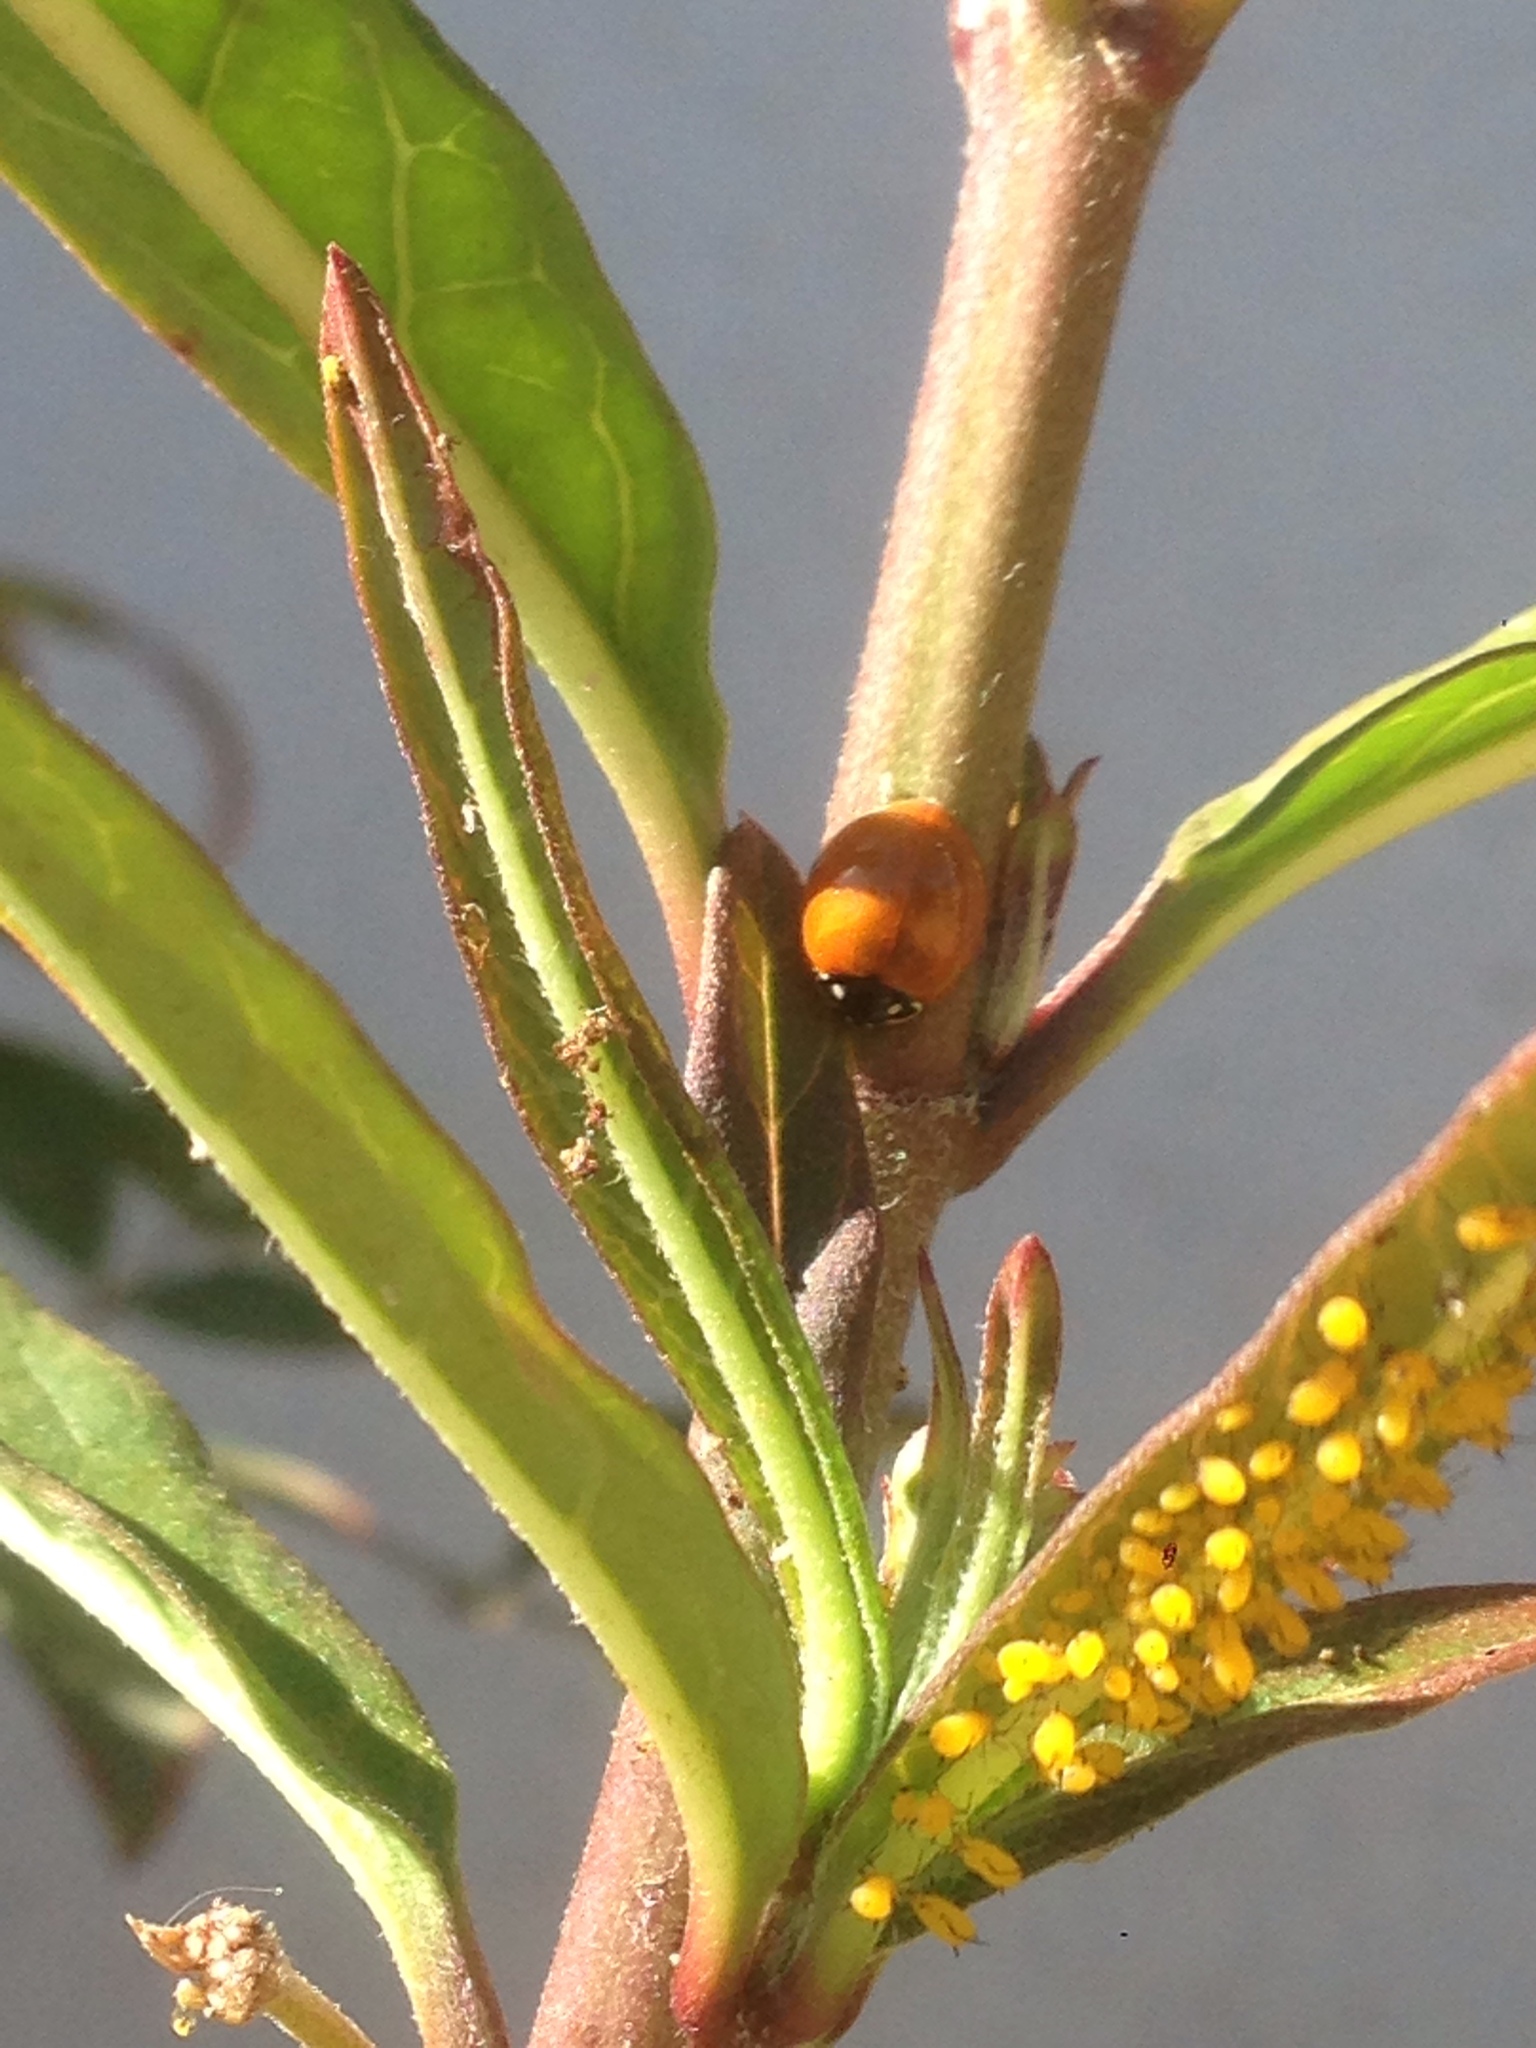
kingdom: Animalia
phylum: Arthropoda
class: Insecta
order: Coleoptera
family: Coccinellidae
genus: Cycloneda
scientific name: Cycloneda sanguinea
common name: Ladybird beetle
